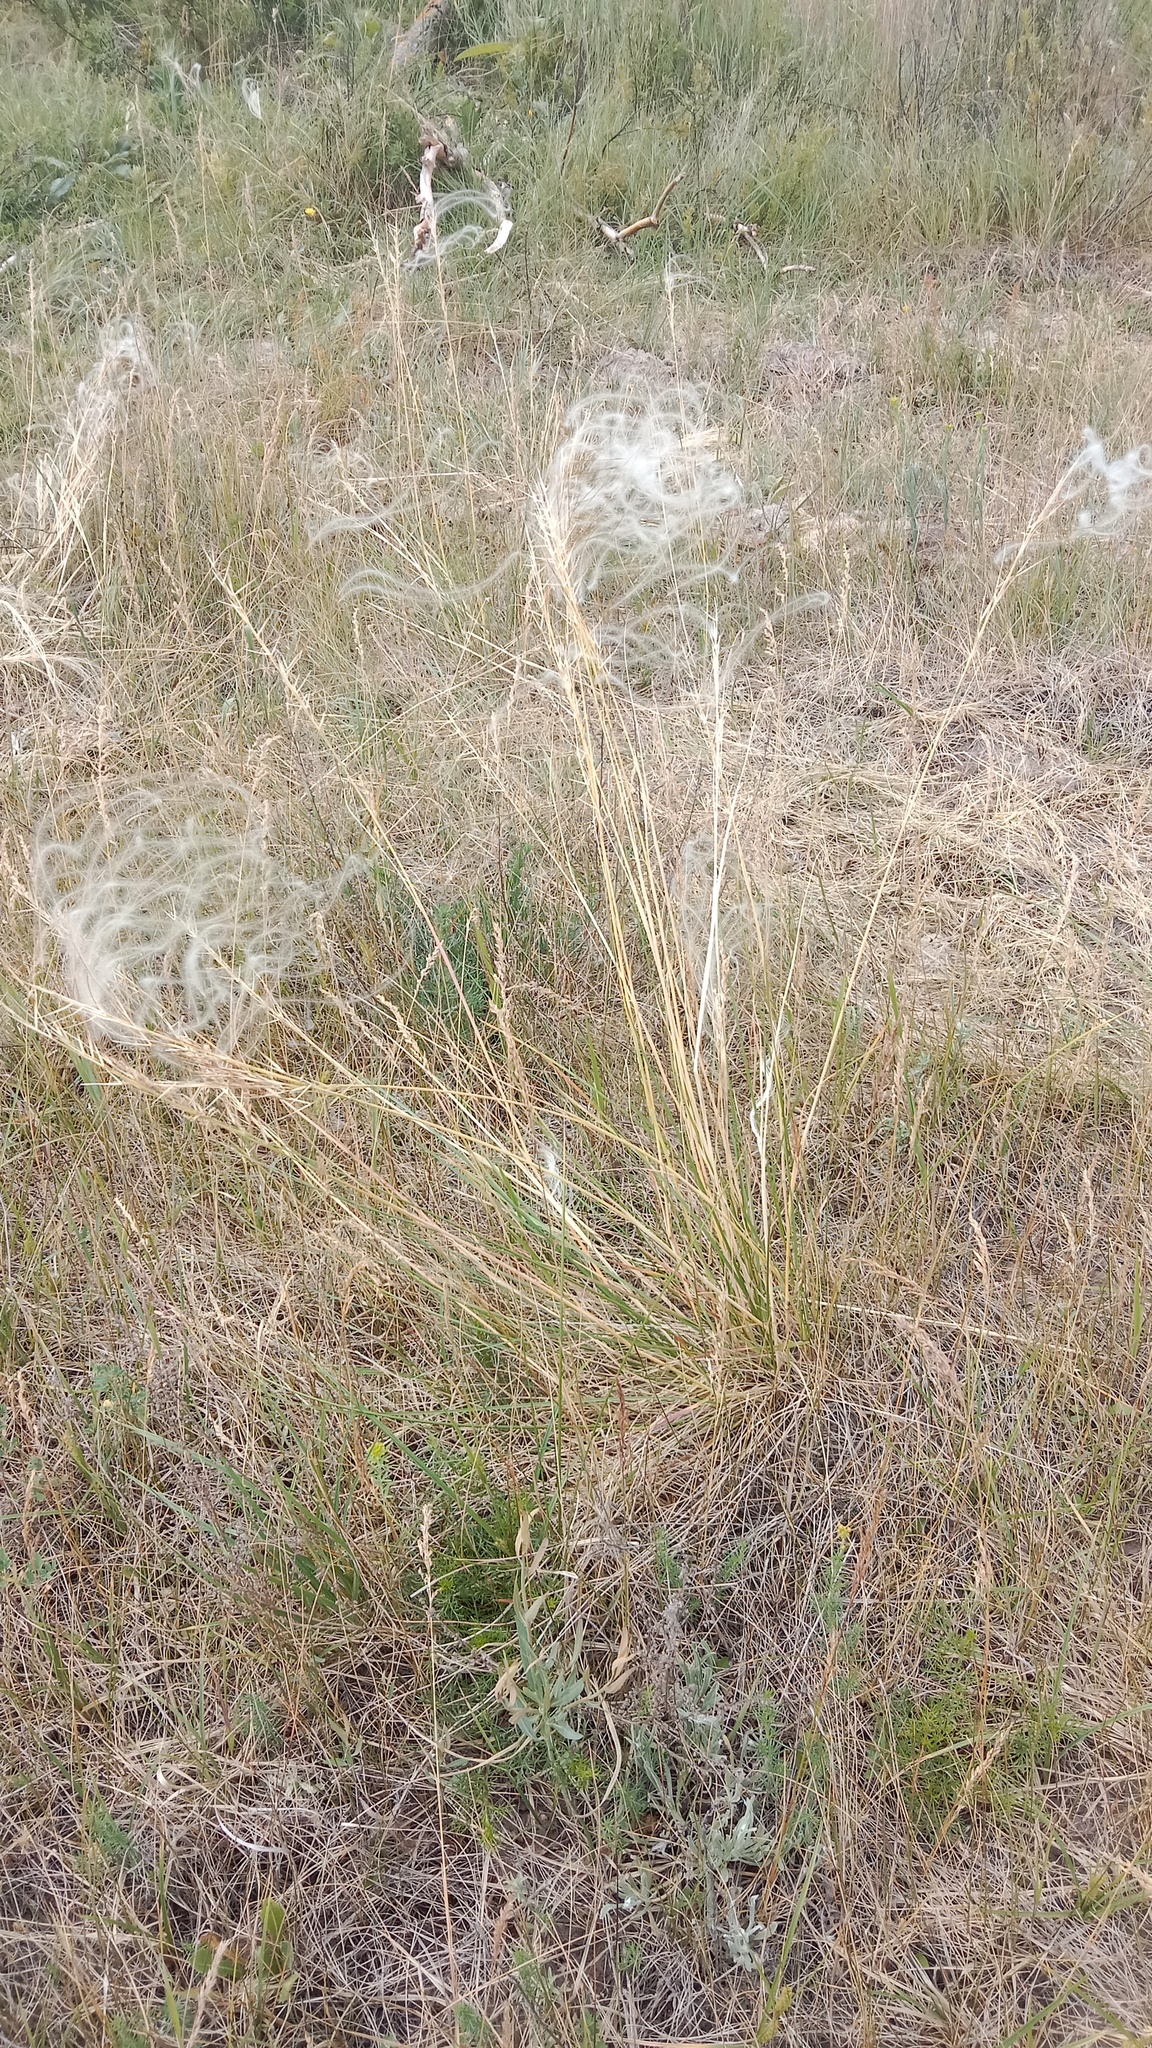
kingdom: Plantae
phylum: Tracheophyta
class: Liliopsida
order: Poales
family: Poaceae
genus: Stipa
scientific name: Stipa borysthenica
